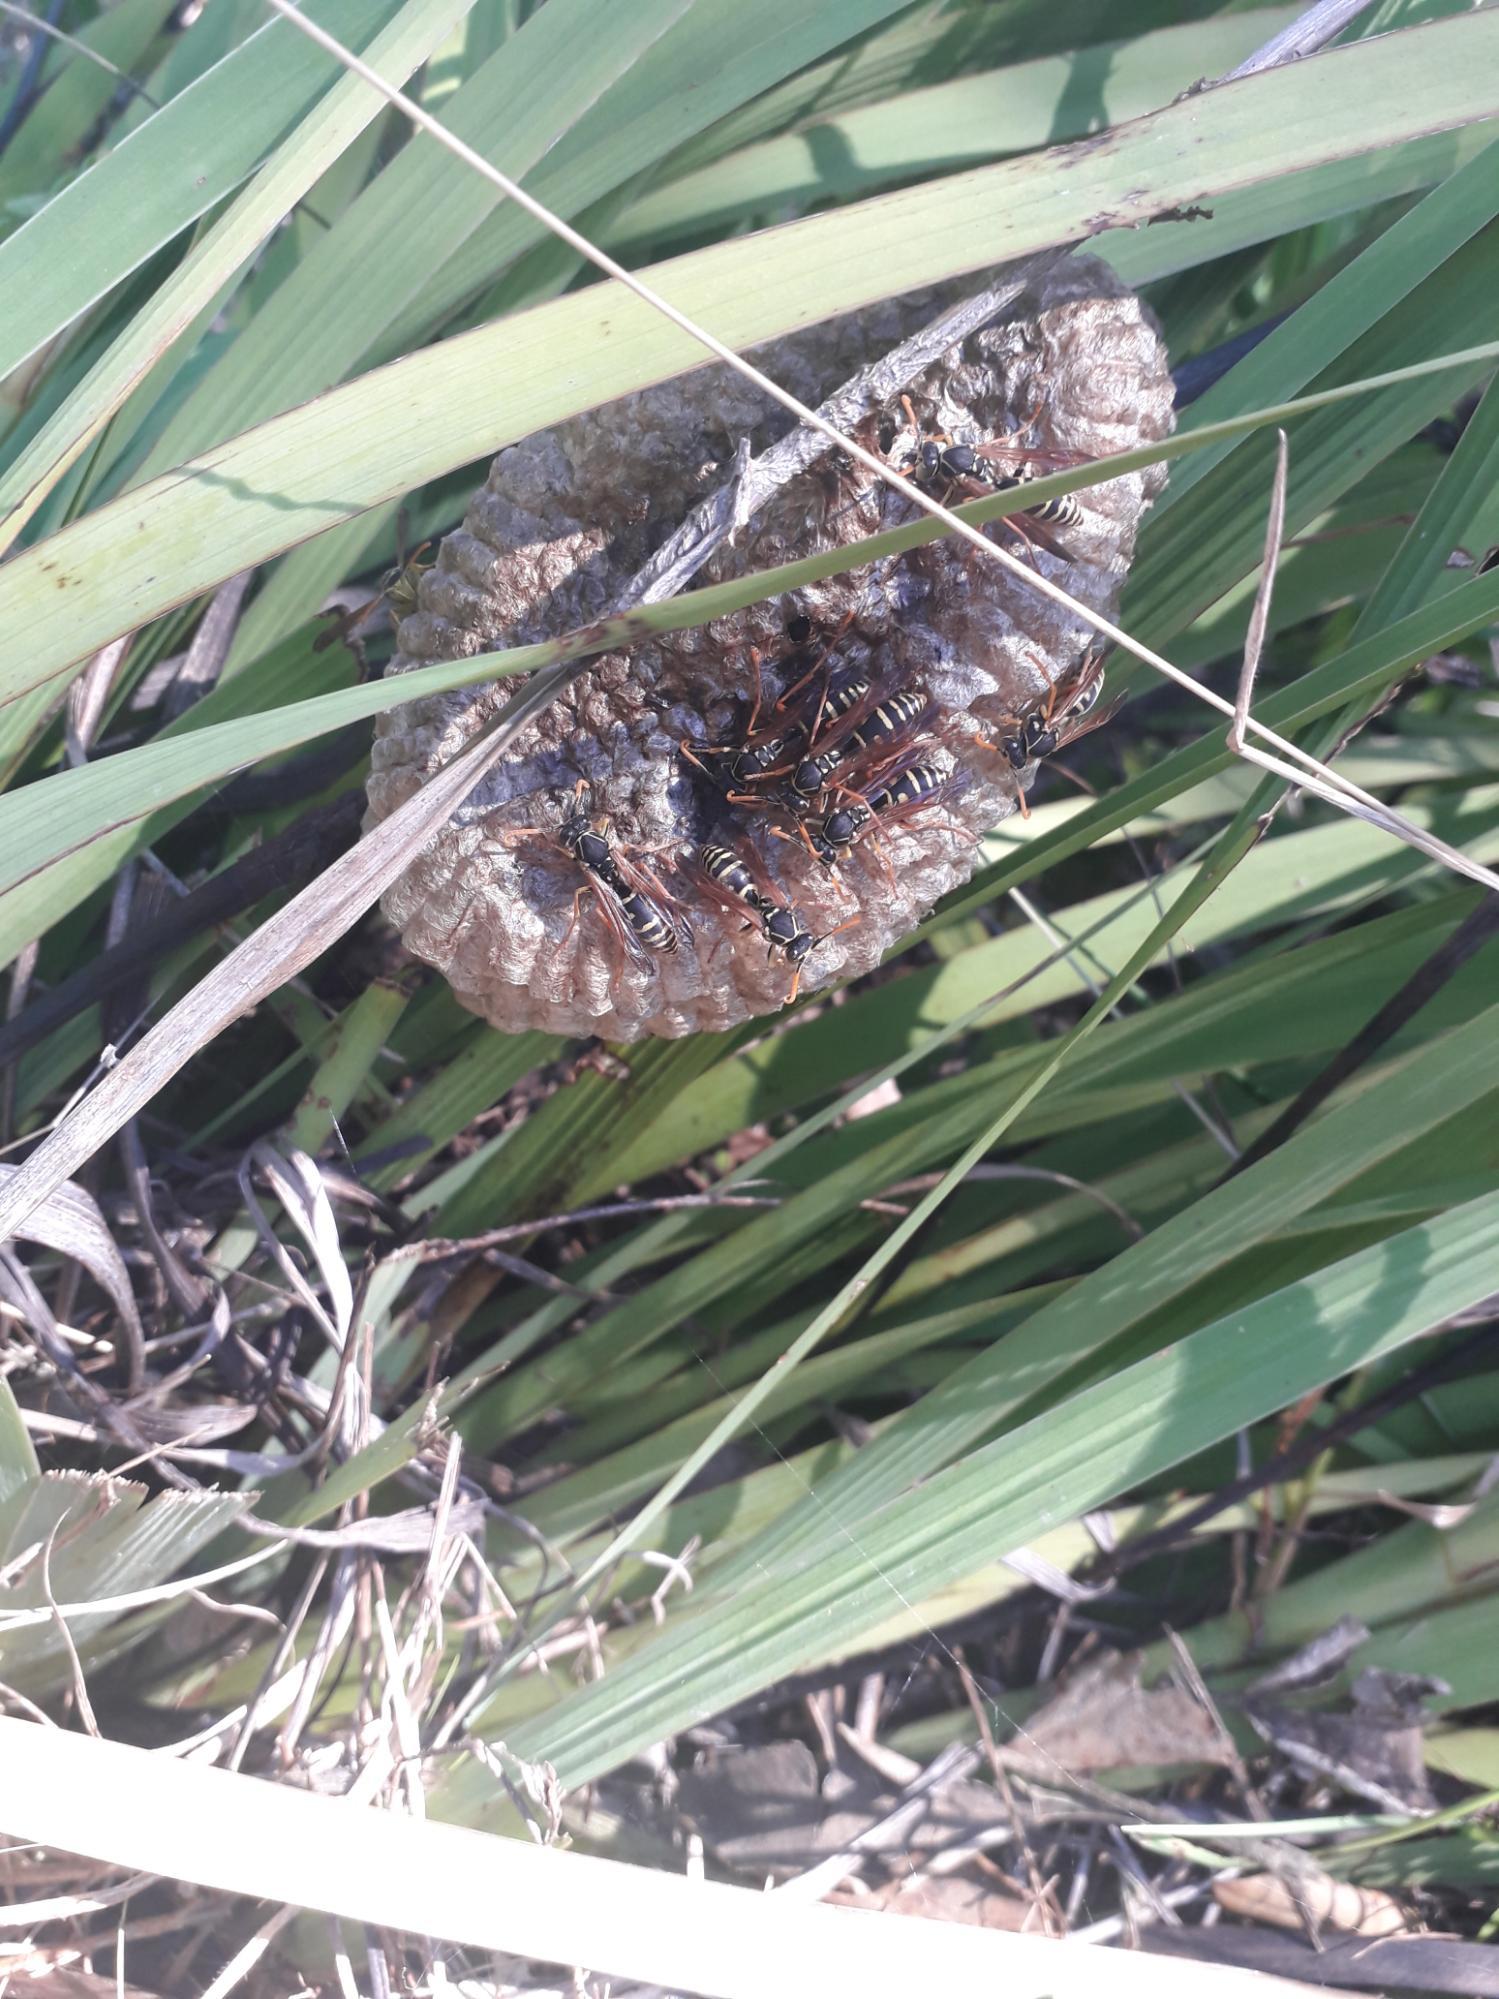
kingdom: Animalia
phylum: Arthropoda
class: Insecta
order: Hymenoptera
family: Eumenidae
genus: Polistes
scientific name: Polistes chinensis
